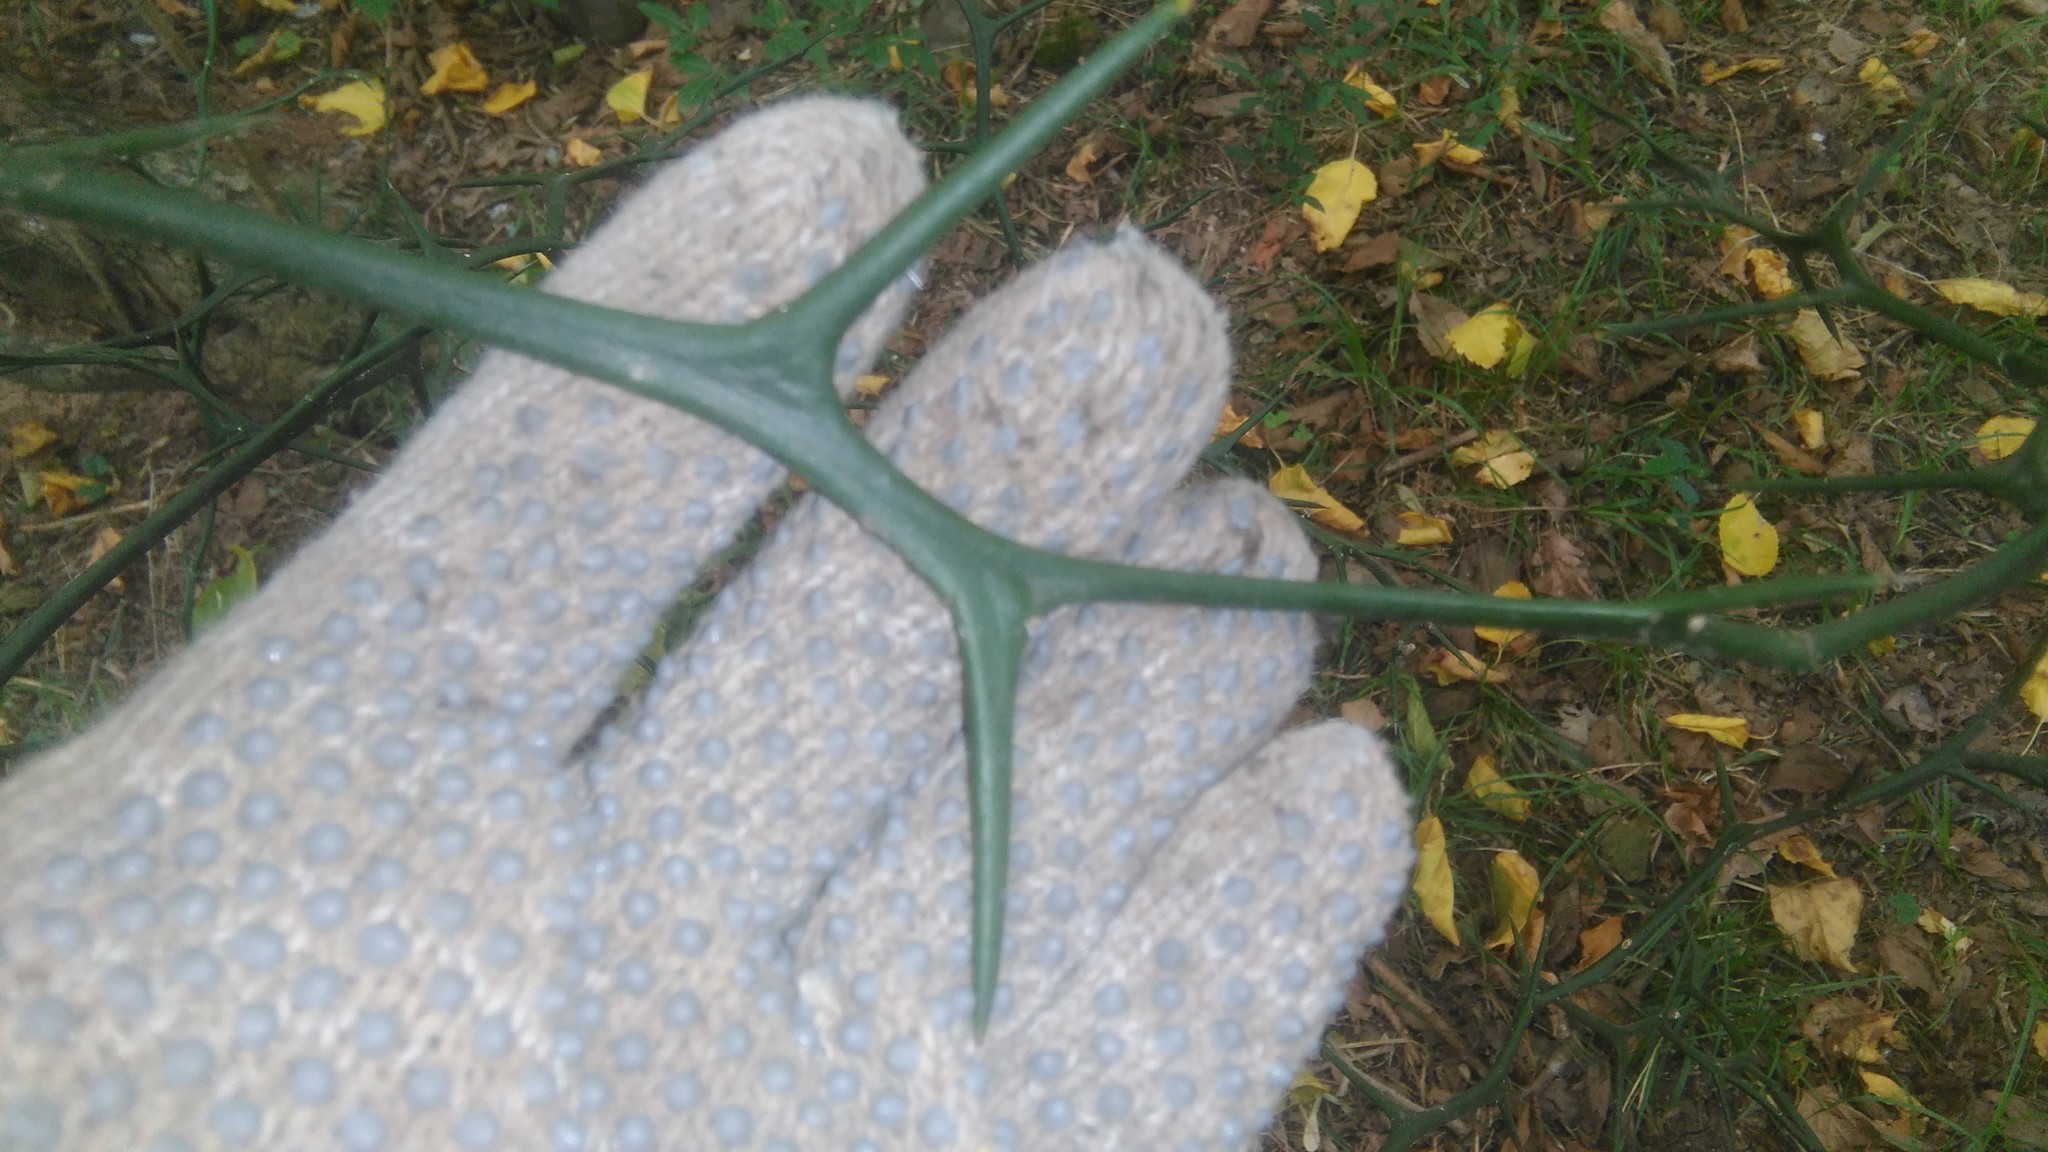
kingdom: Plantae
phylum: Tracheophyta
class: Magnoliopsida
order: Sapindales
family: Rutaceae
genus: Citrus
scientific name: Citrus trifoliata
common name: Japanese bitter-orange
